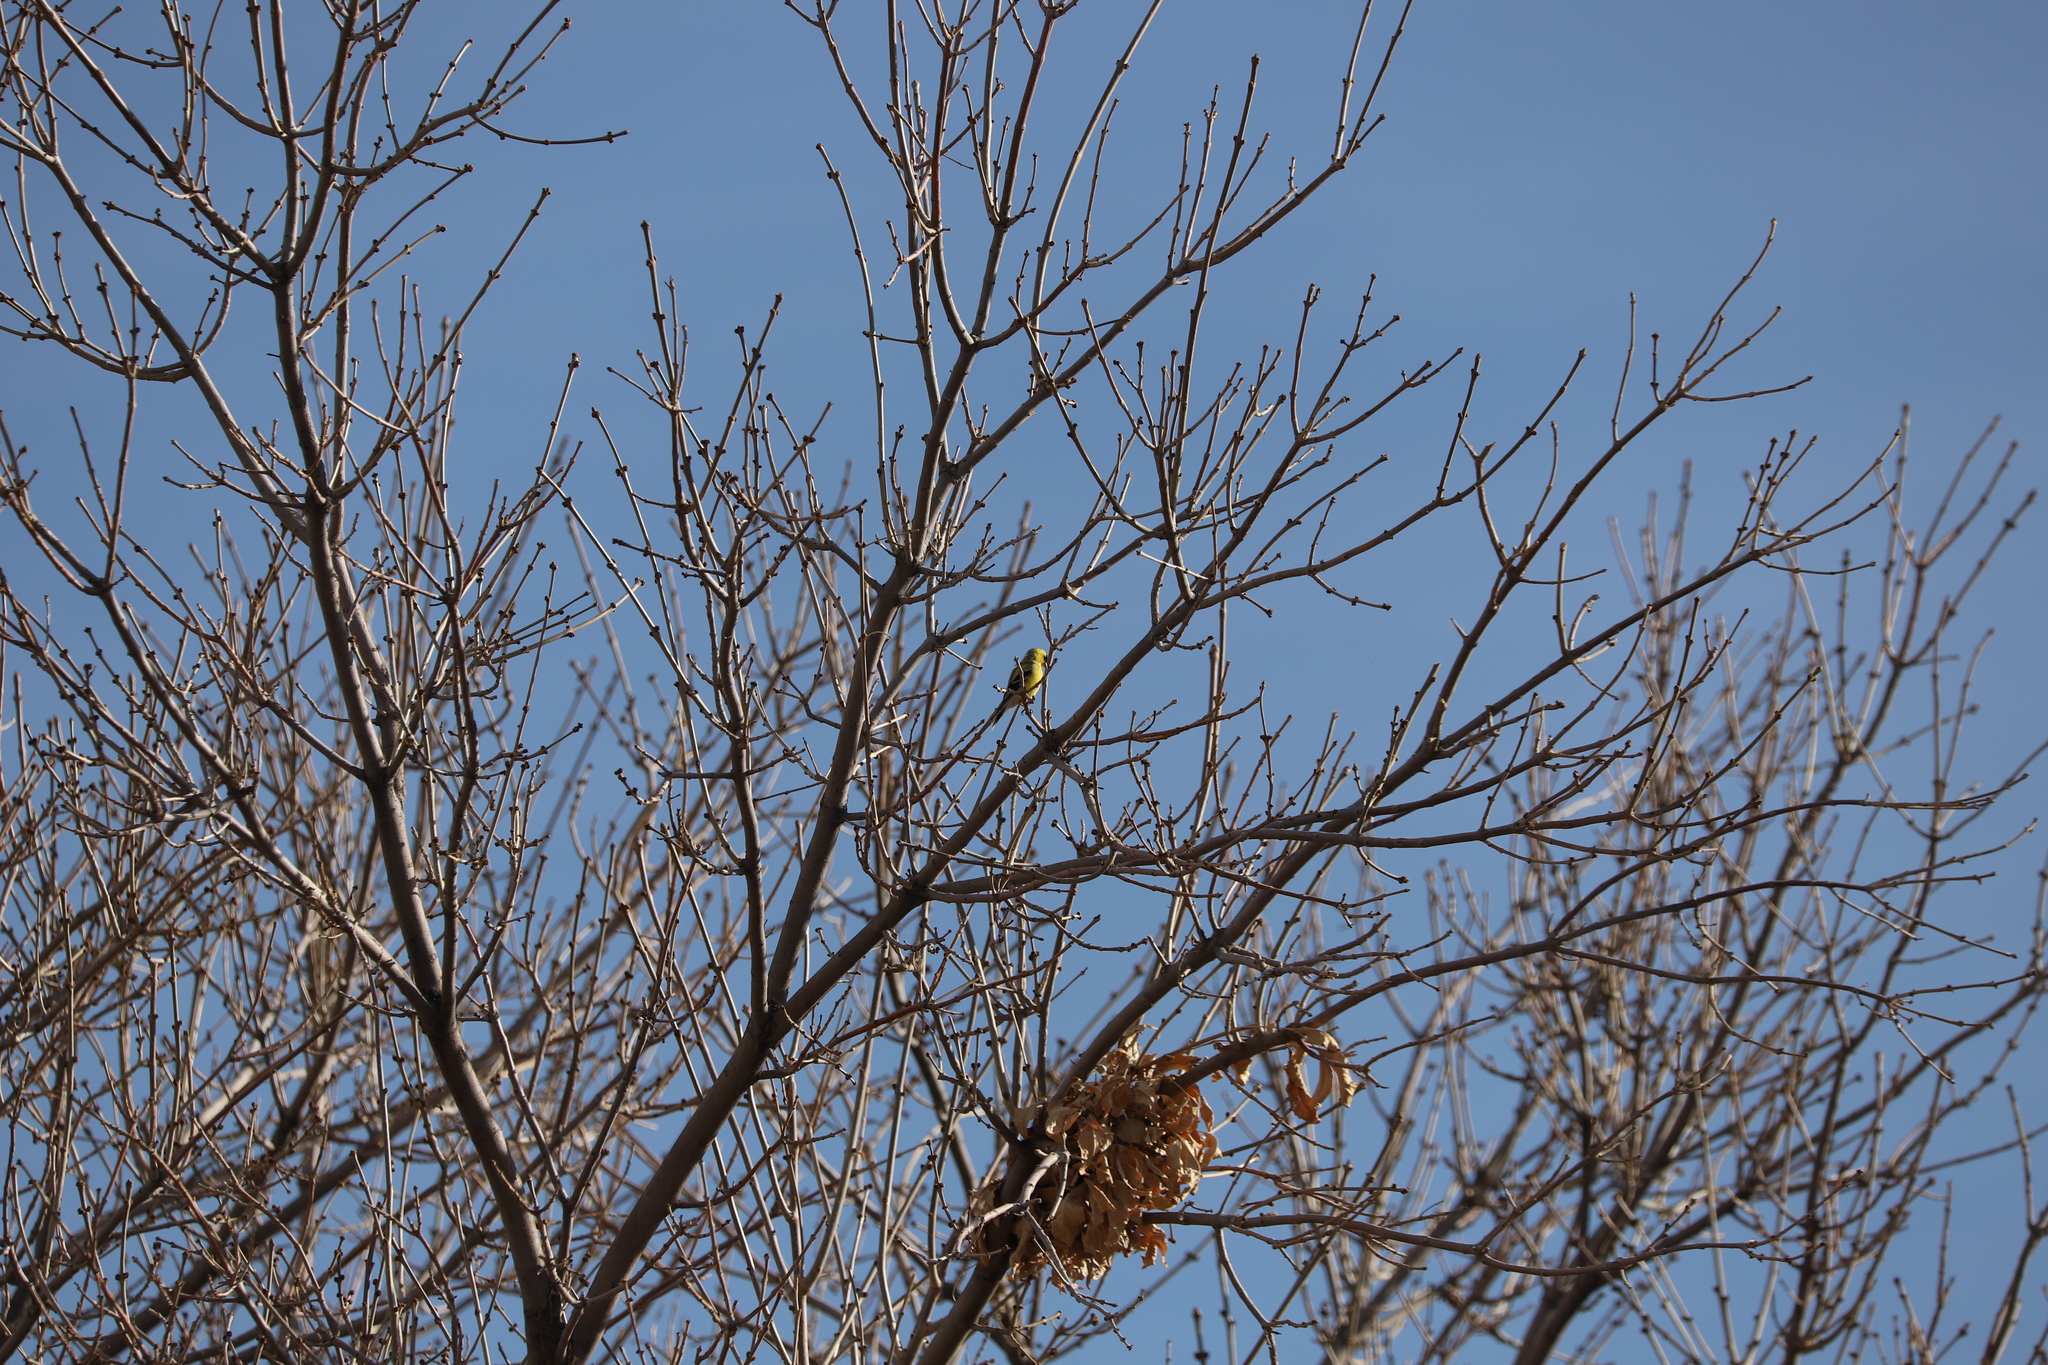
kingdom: Animalia
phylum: Chordata
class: Aves
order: Passeriformes
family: Fringillidae
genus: Spinus
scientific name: Spinus tristis
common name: American goldfinch
